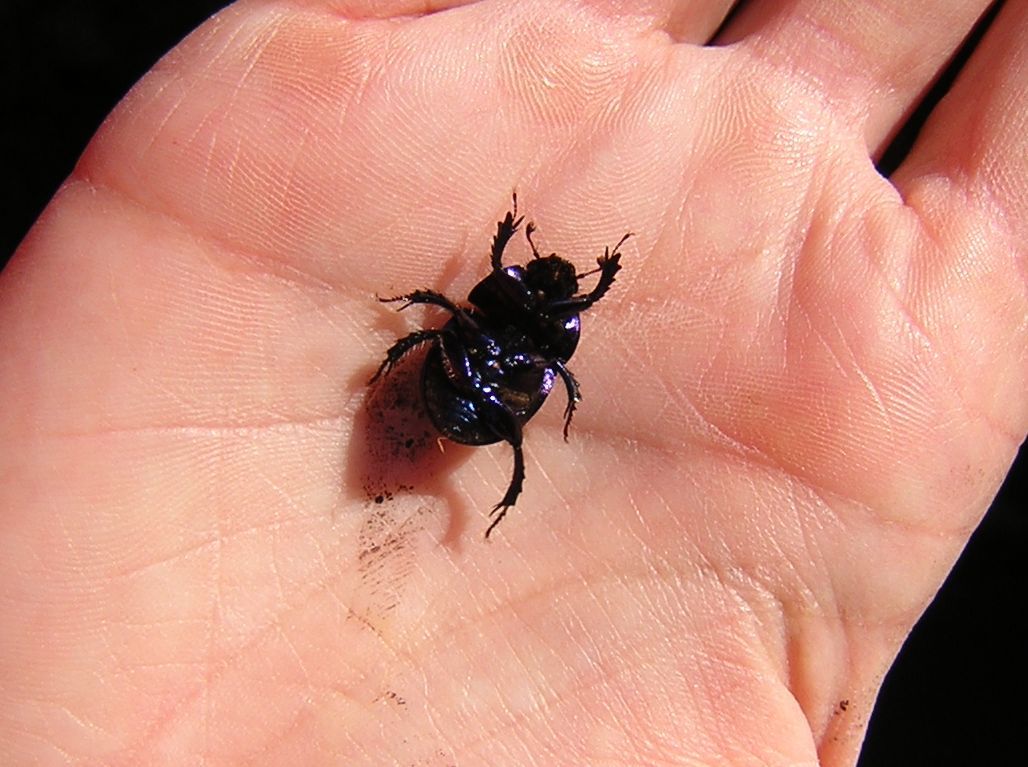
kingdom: Animalia
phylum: Arthropoda
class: Insecta
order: Coleoptera
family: Geotrupidae
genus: Anoplotrupes
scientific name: Anoplotrupes stercorosus
